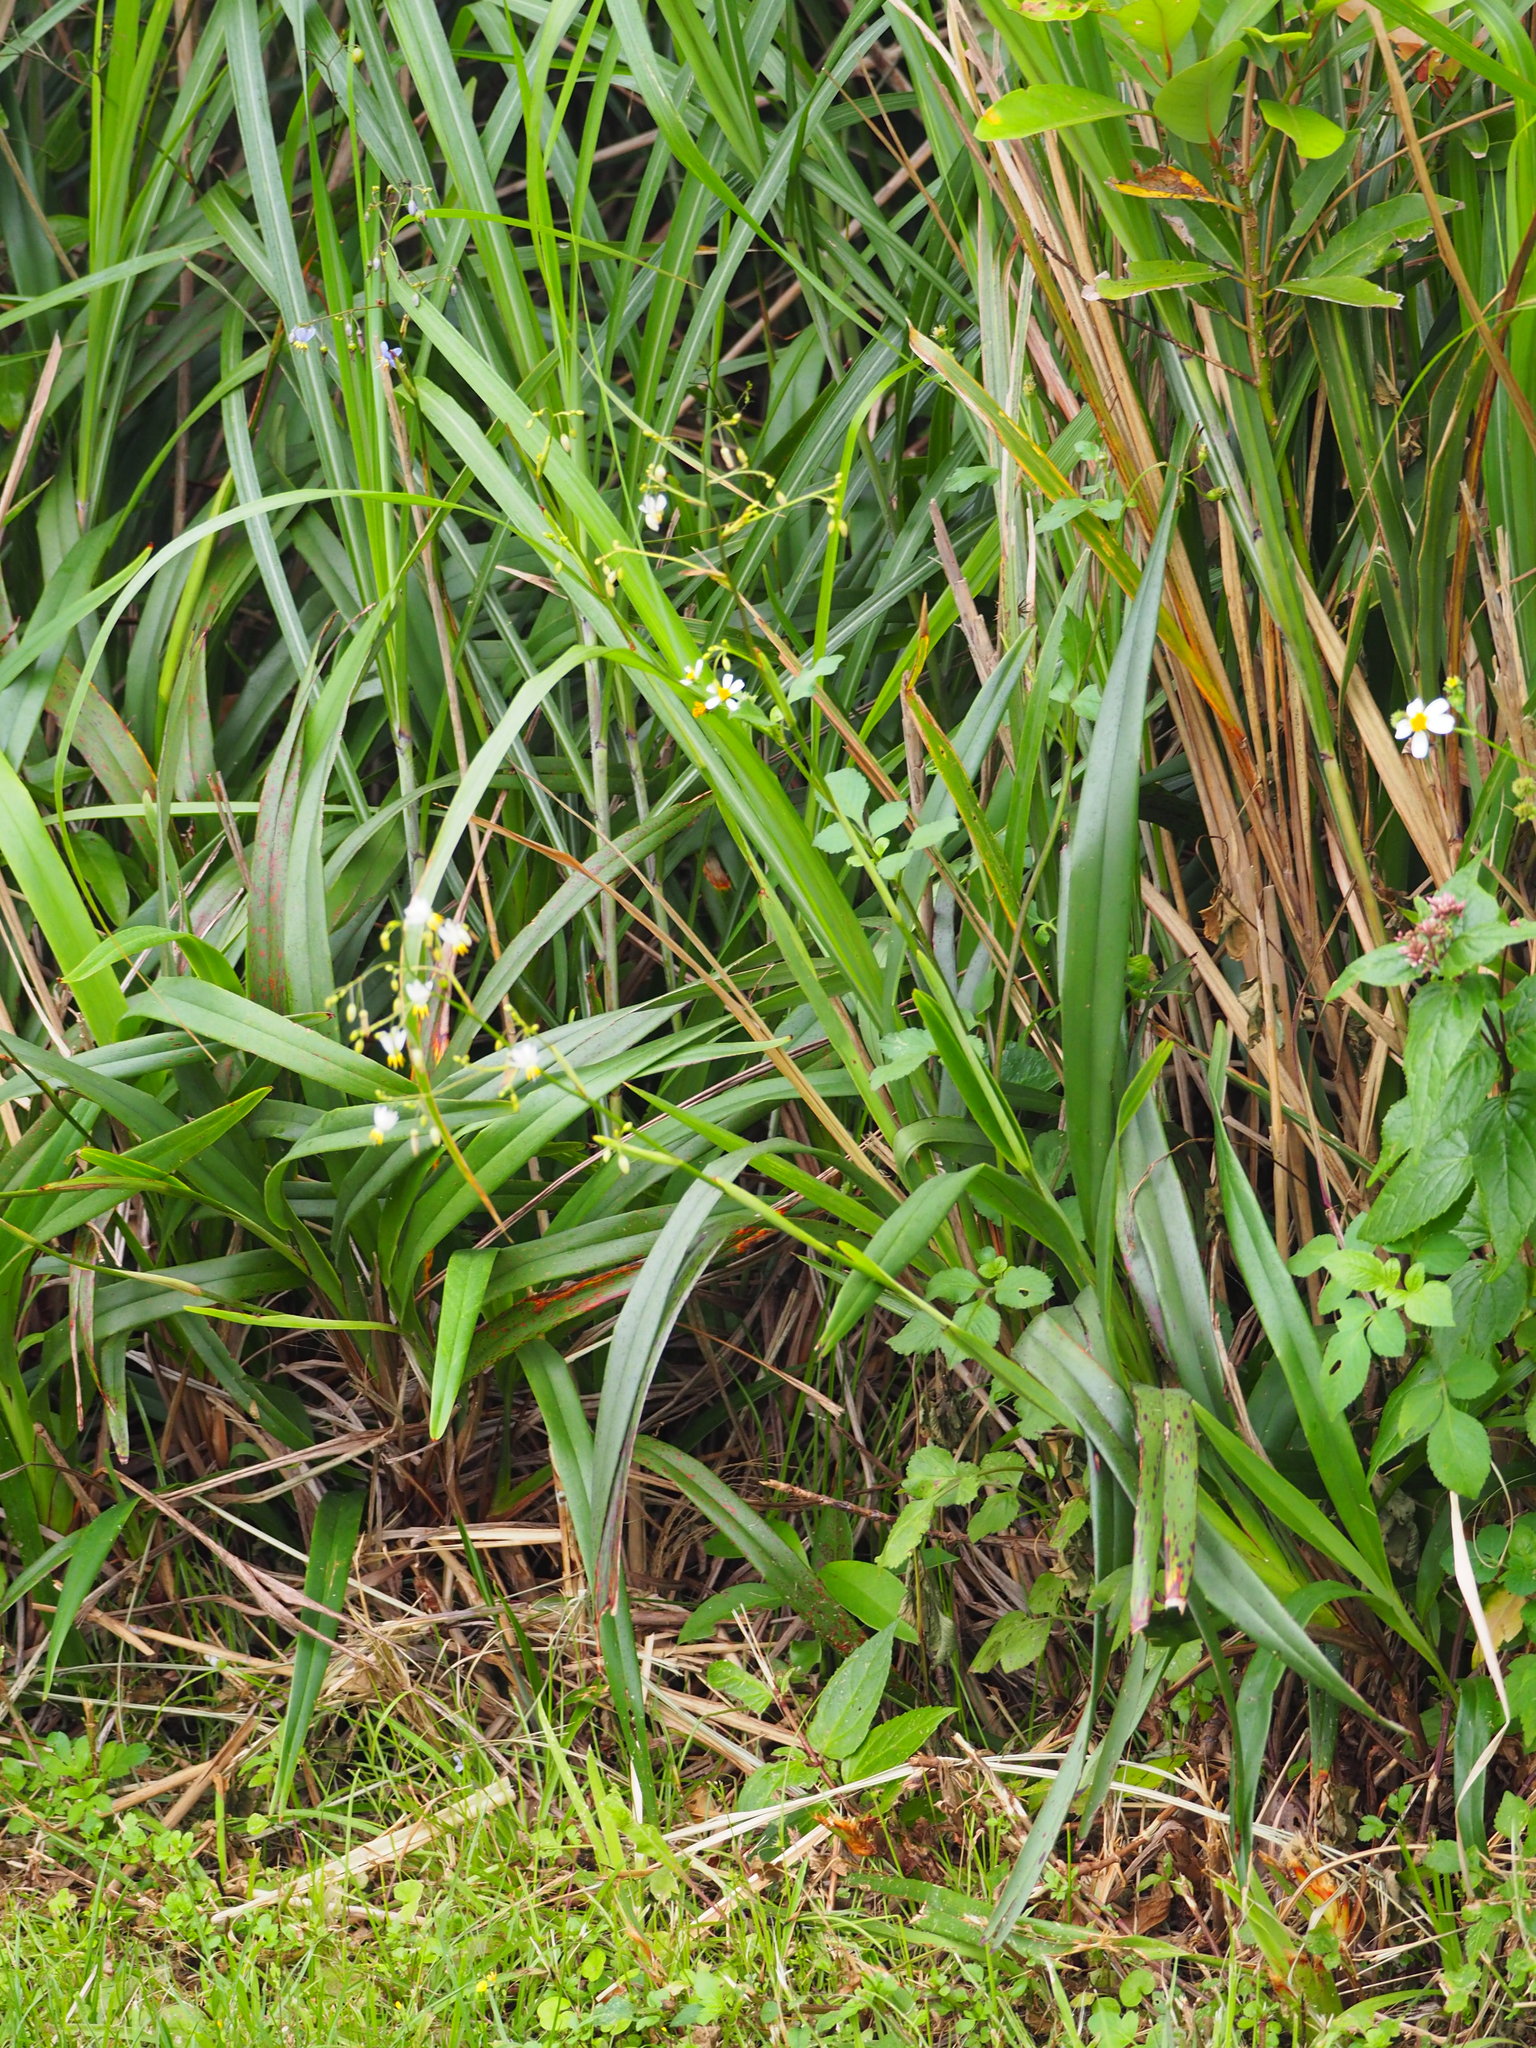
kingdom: Plantae
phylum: Tracheophyta
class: Liliopsida
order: Asparagales
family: Asphodelaceae
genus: Dianella
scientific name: Dianella ensifolia
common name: New zealand lilyplant
